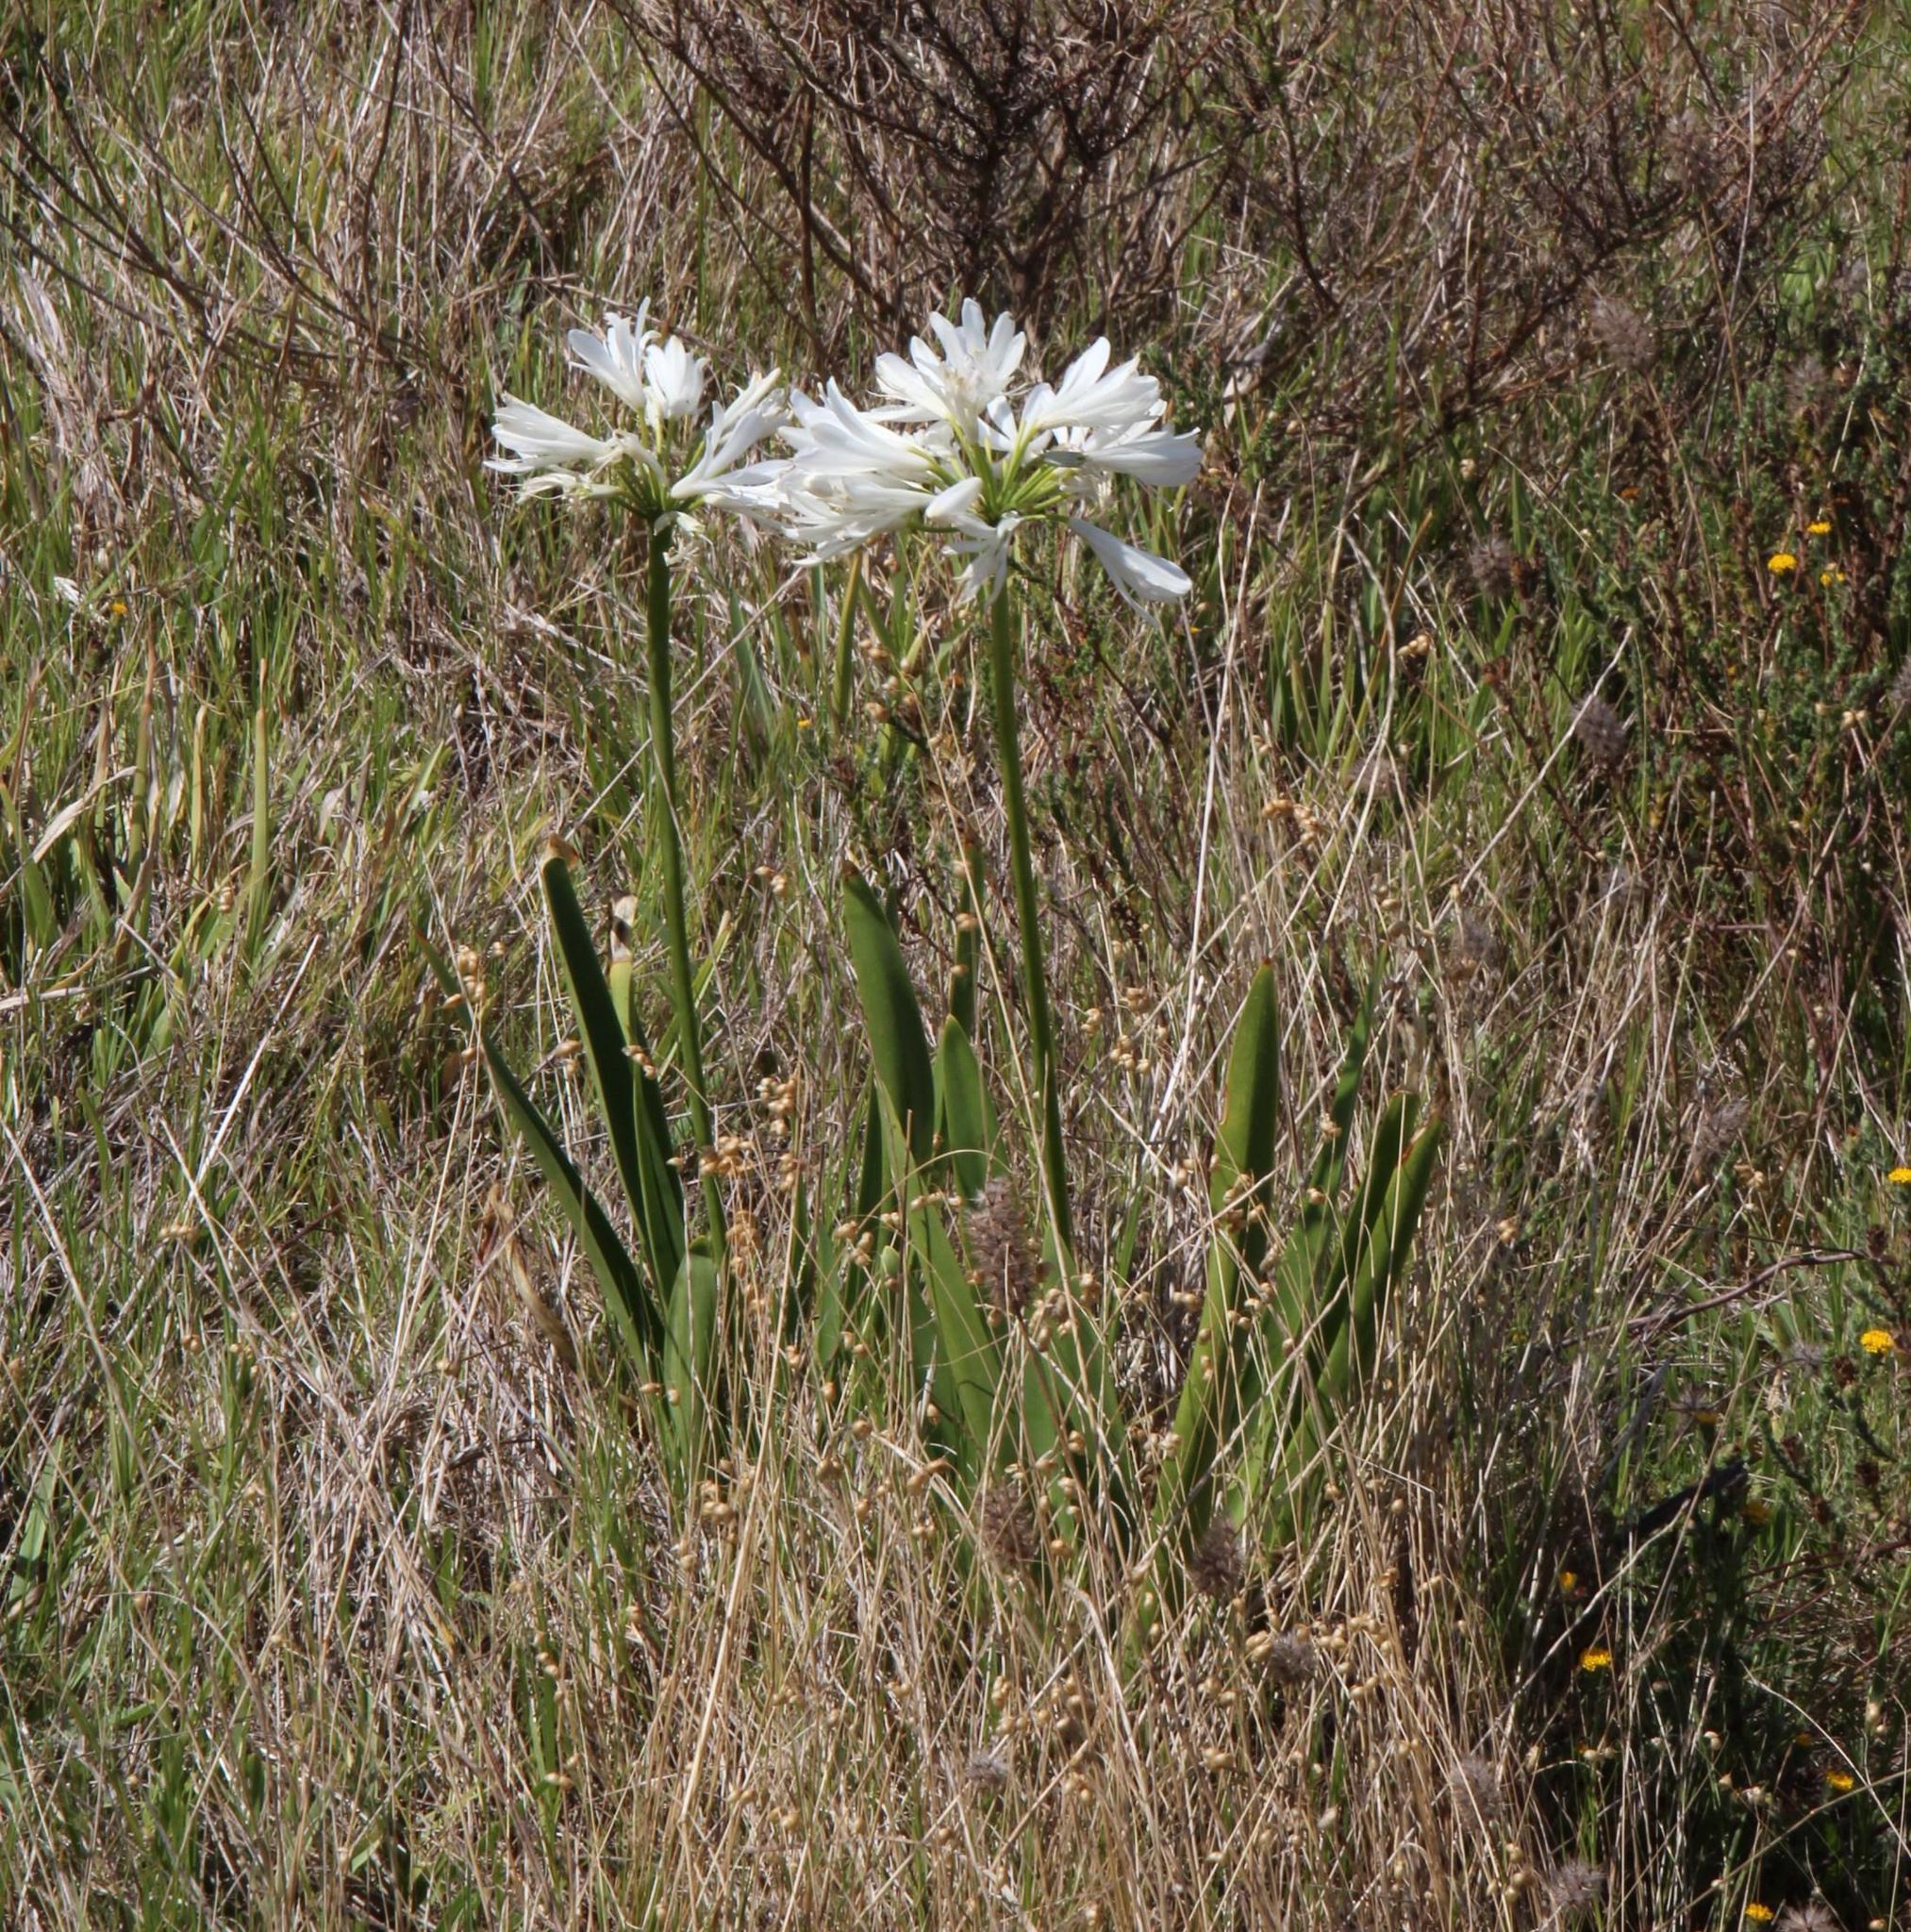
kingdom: Plantae
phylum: Tracheophyta
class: Liliopsida
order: Asparagales
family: Amaryllidaceae
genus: Agapanthus
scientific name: Agapanthus praecox
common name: African-lily
